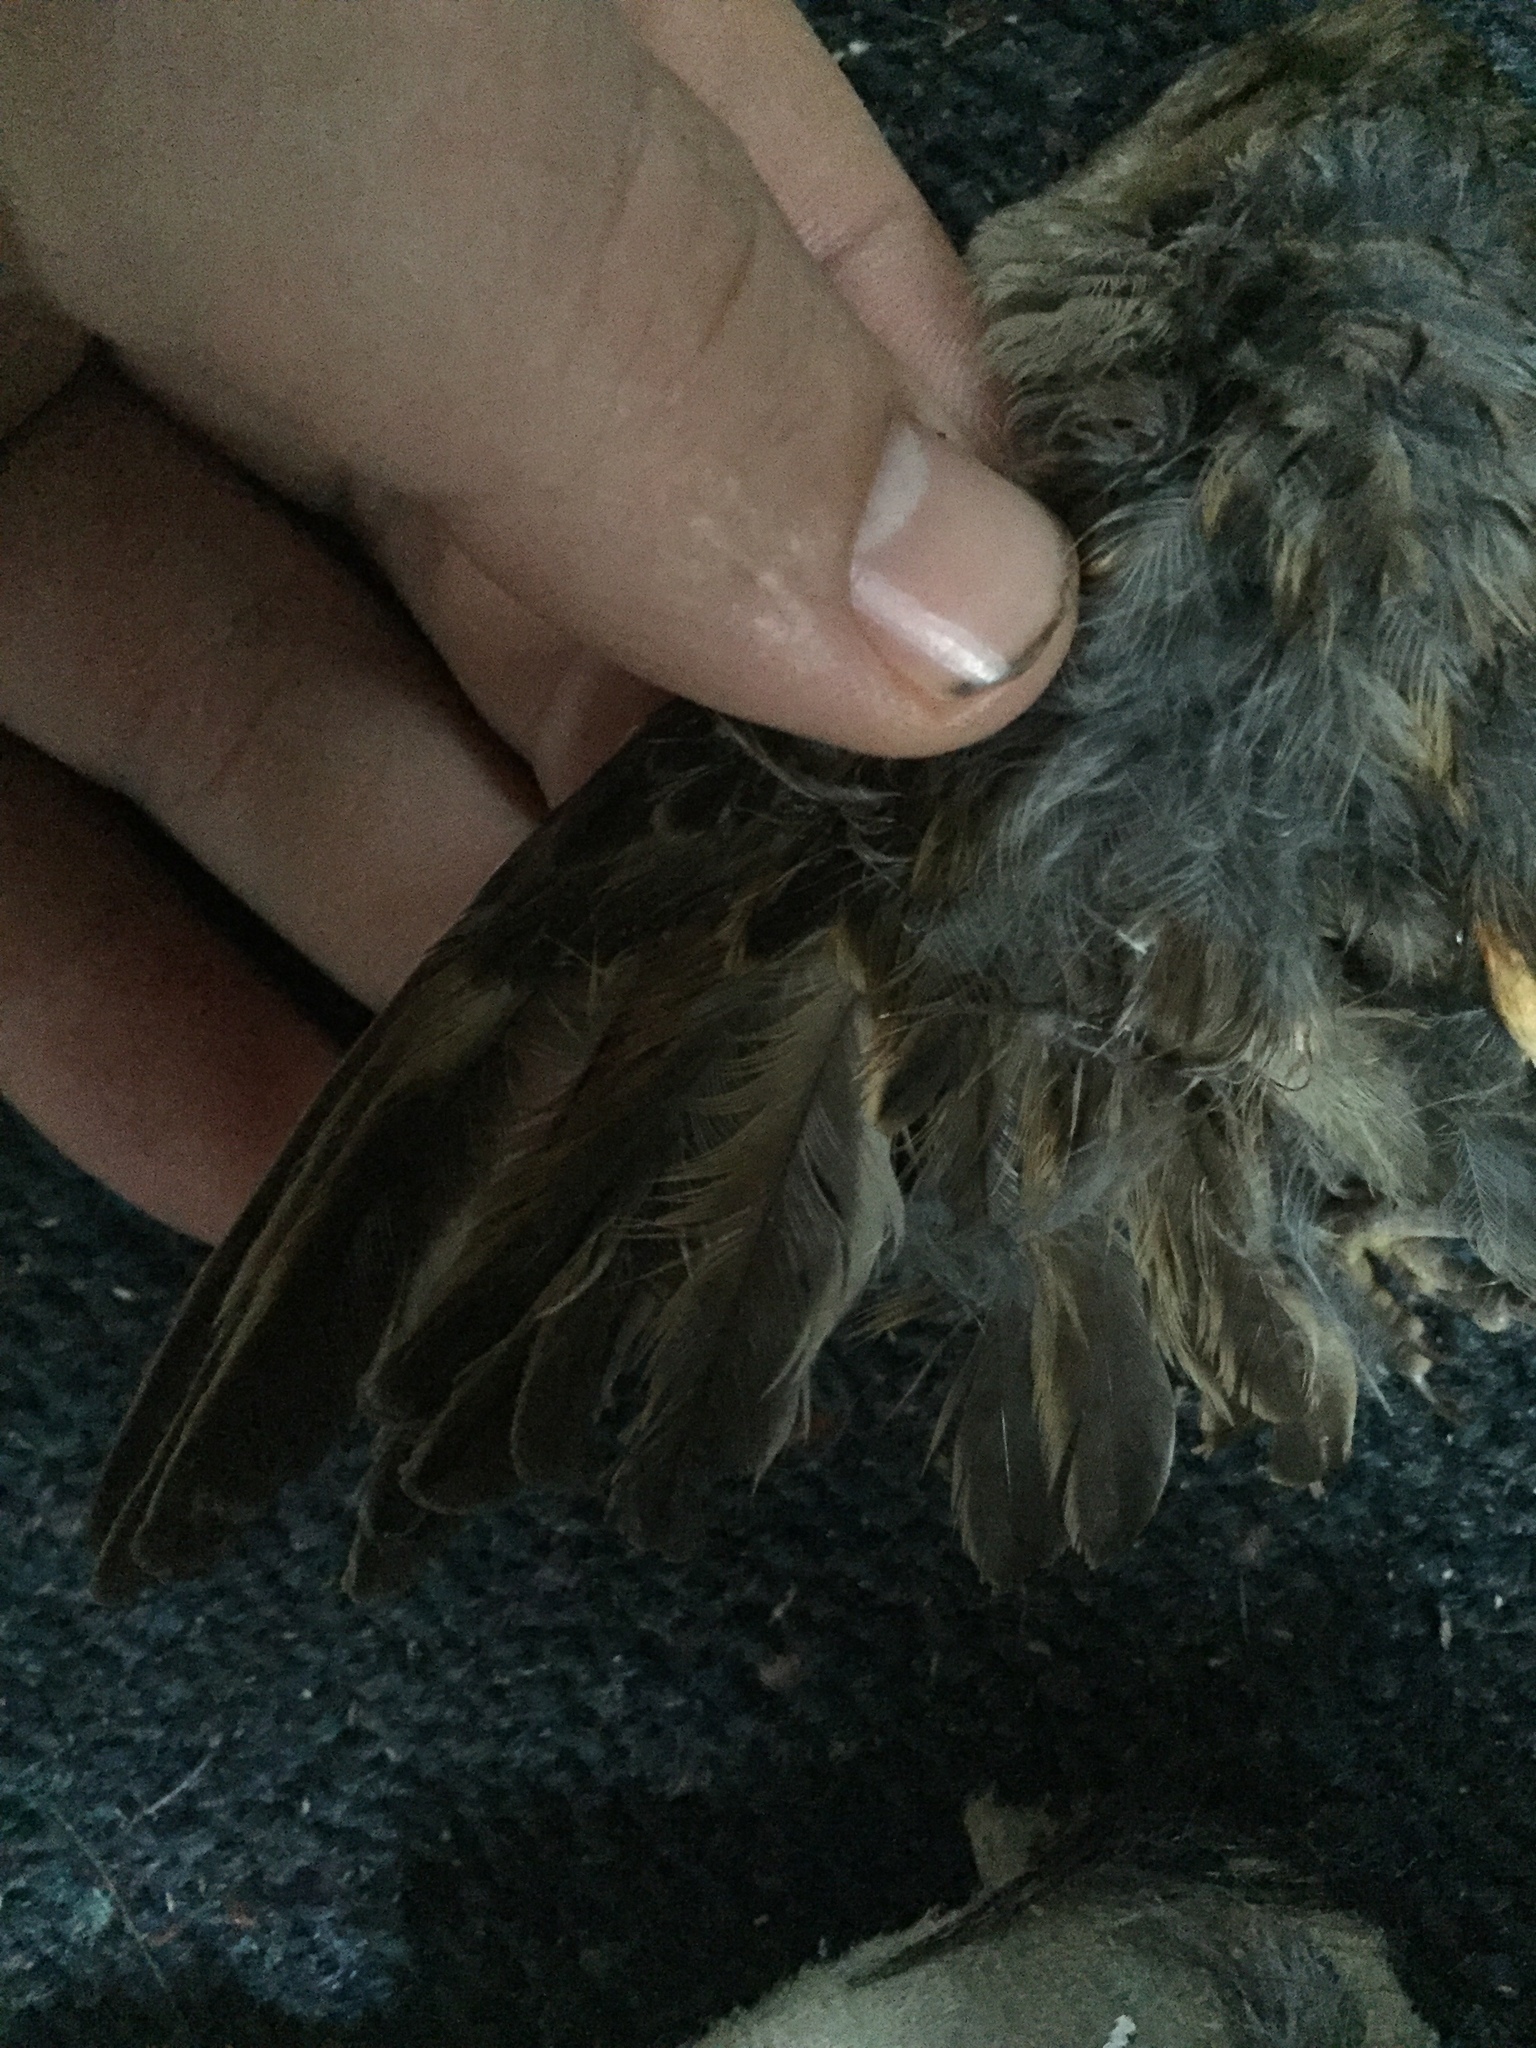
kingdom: Animalia
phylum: Chordata
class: Aves
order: Passeriformes
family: Passeridae
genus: Passer
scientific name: Passer domesticus
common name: House sparrow
